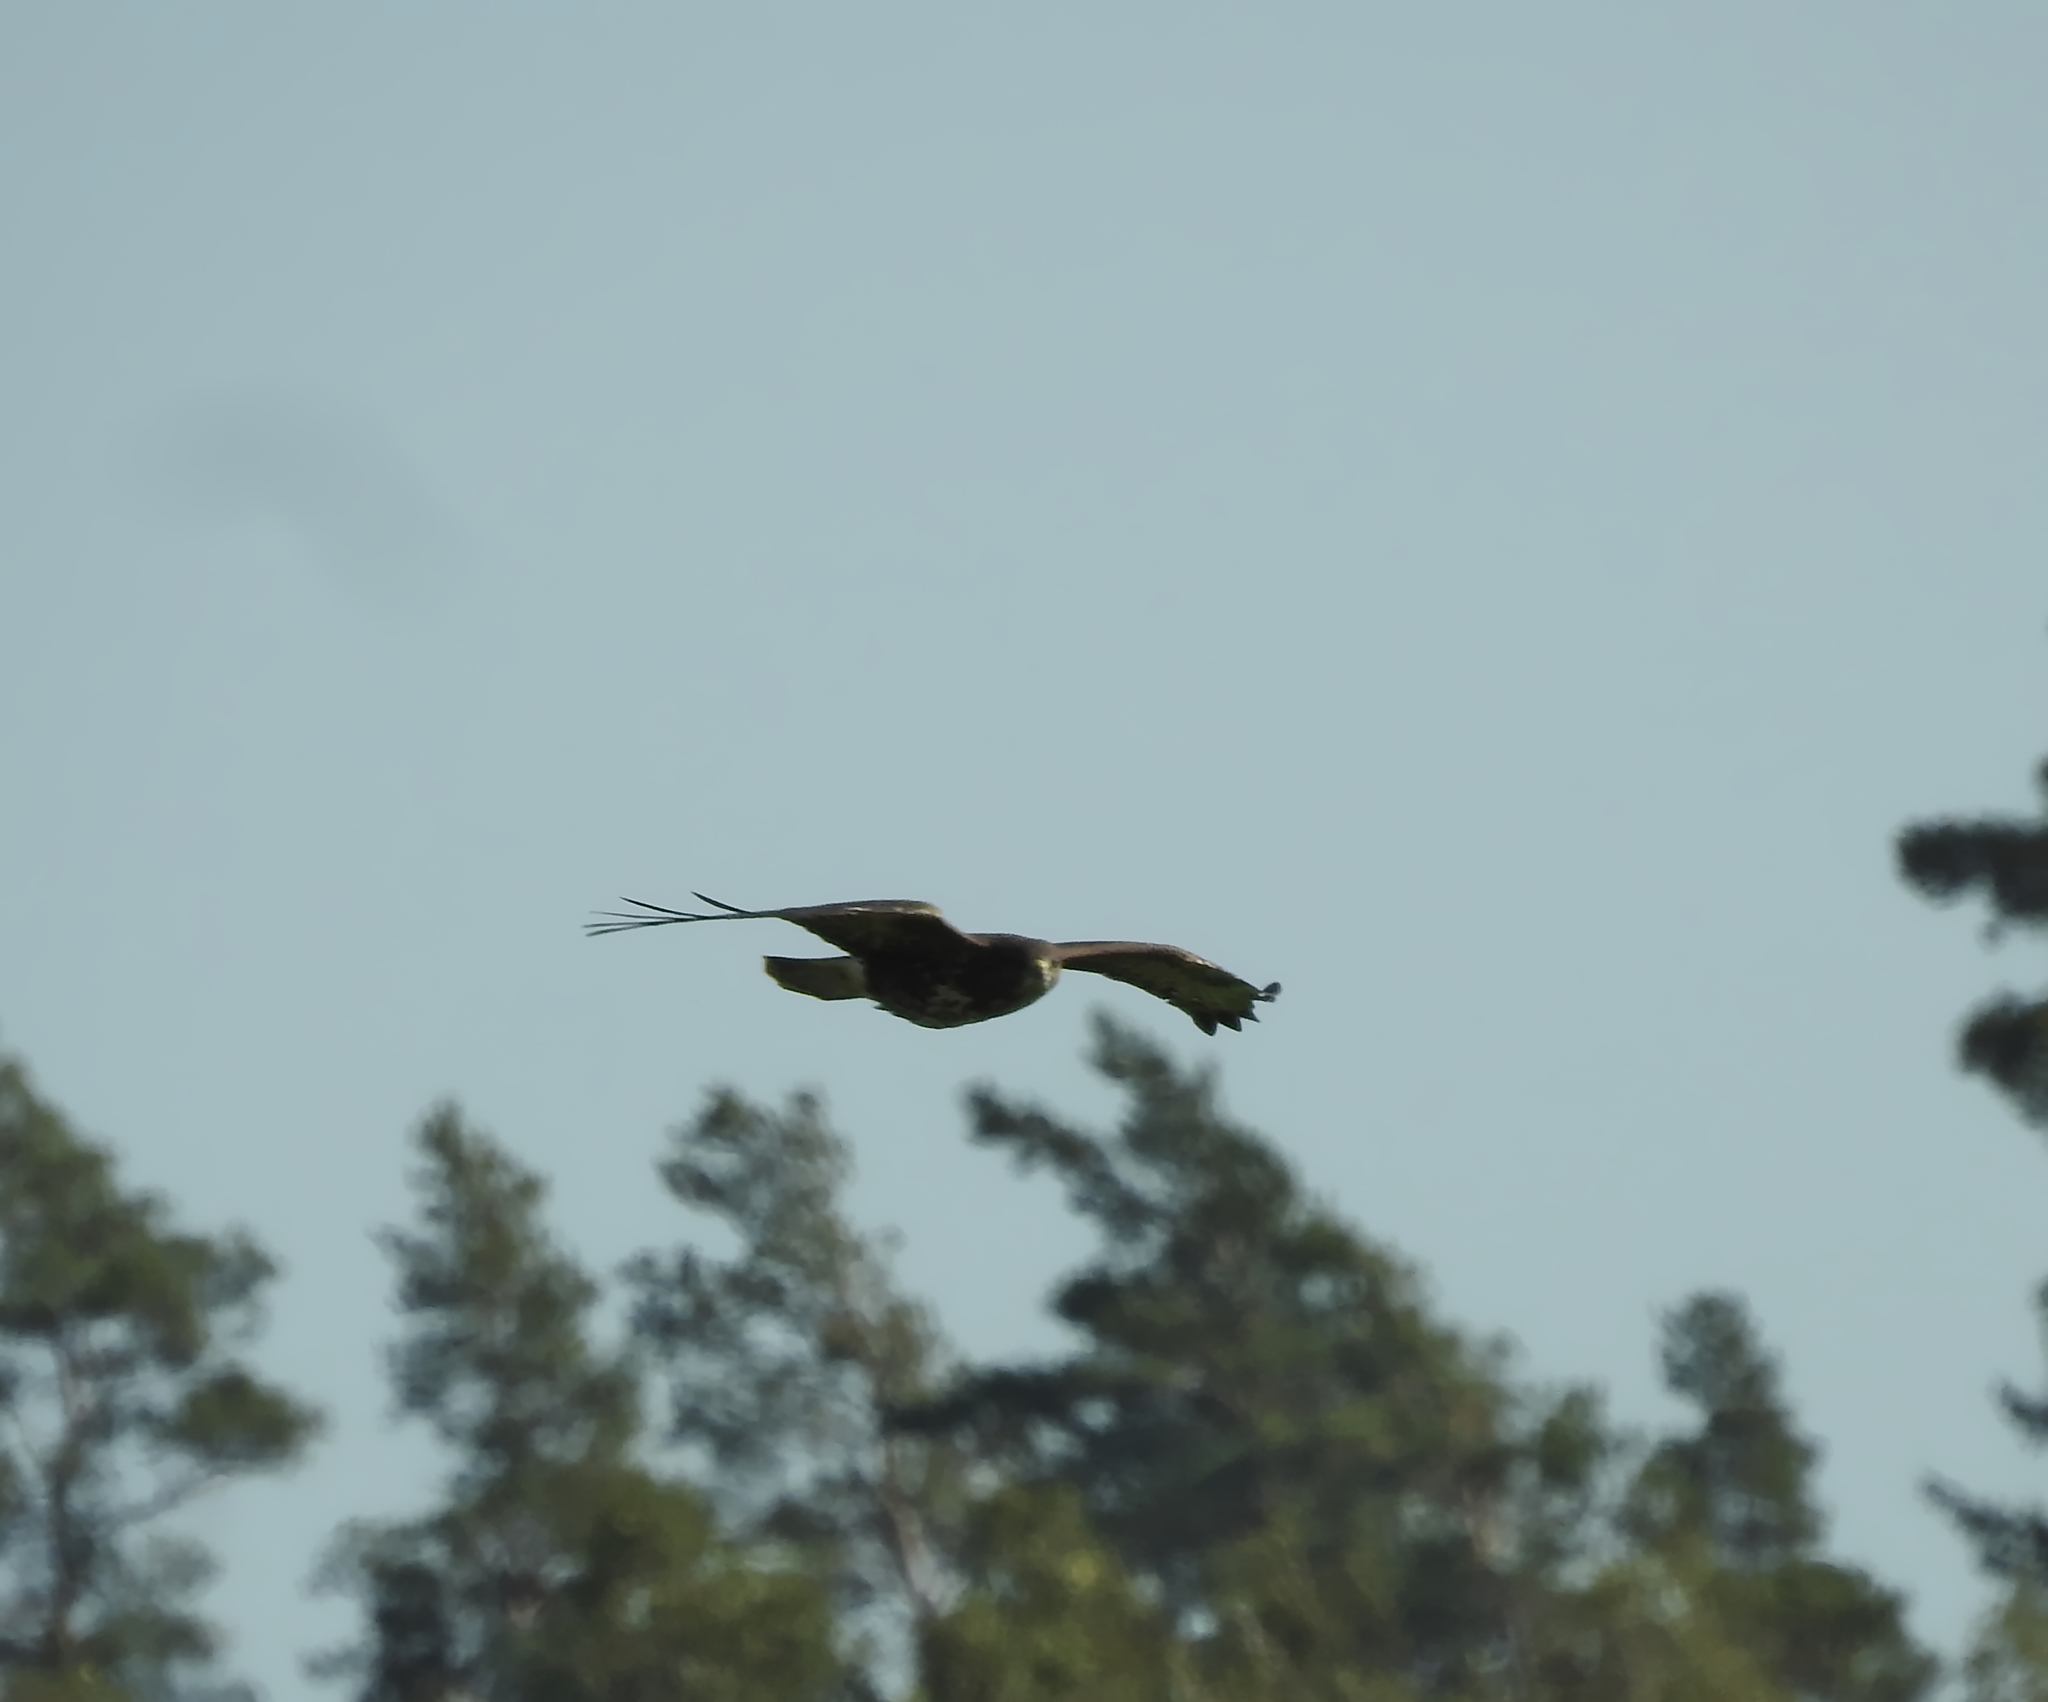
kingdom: Animalia
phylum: Chordata
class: Aves
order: Accipitriformes
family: Accipitridae
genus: Buteo
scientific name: Buteo buteo
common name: Common buzzard
